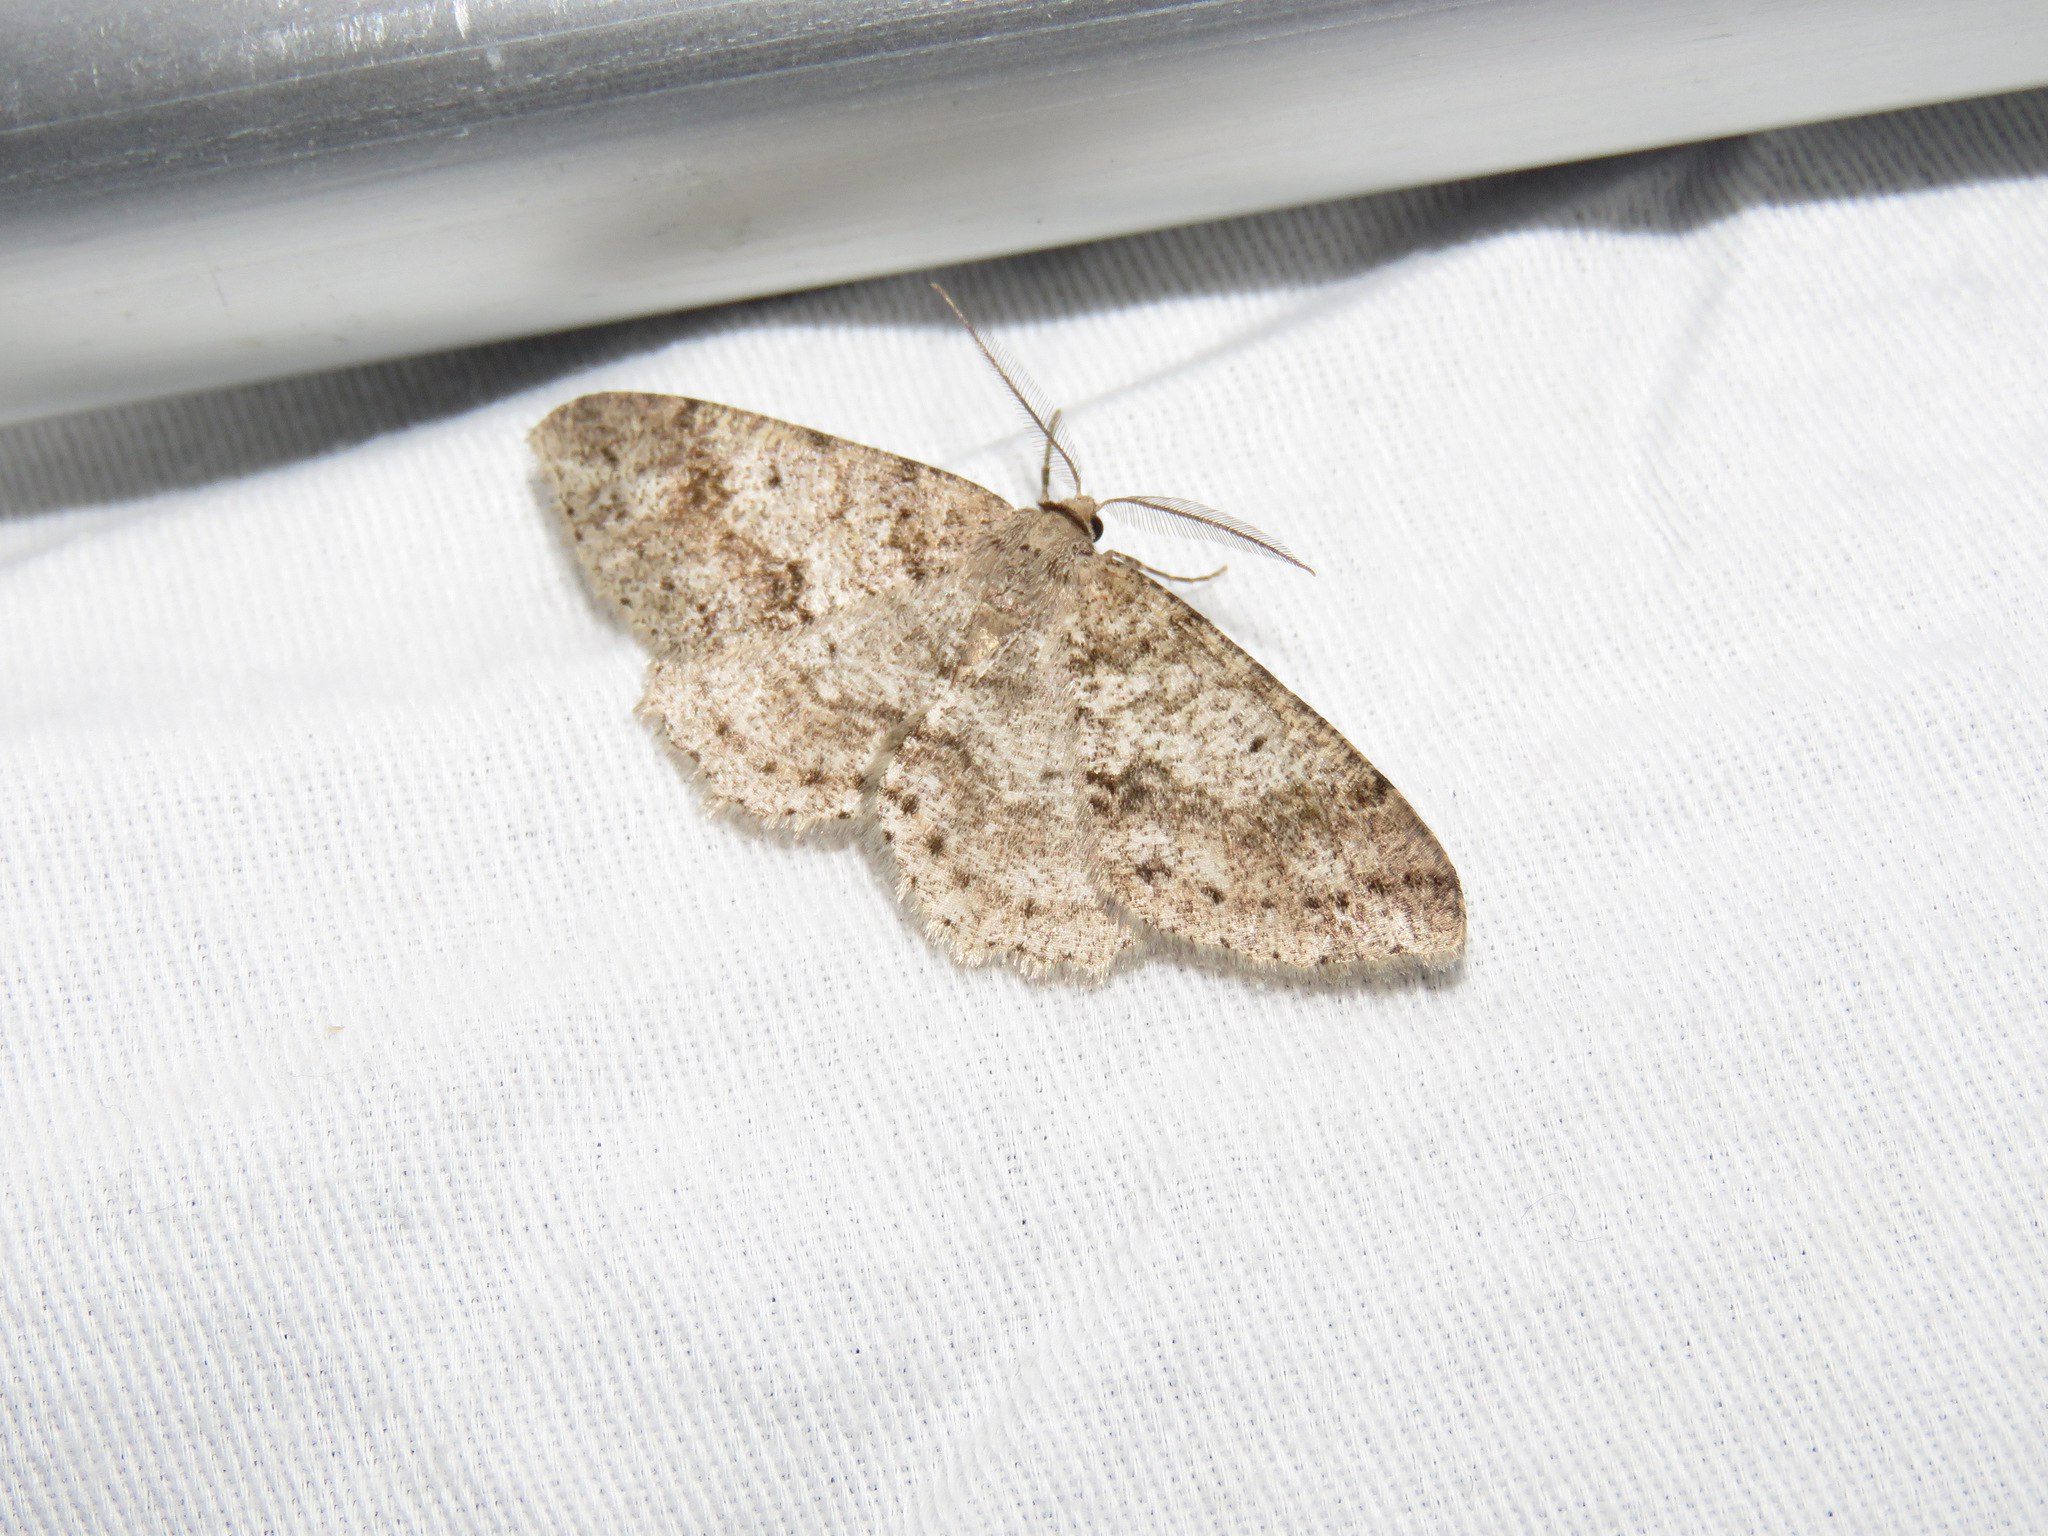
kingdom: Animalia
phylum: Arthropoda
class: Insecta
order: Lepidoptera
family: Geometridae
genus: Melanolophia
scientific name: Melanolophia imitata
